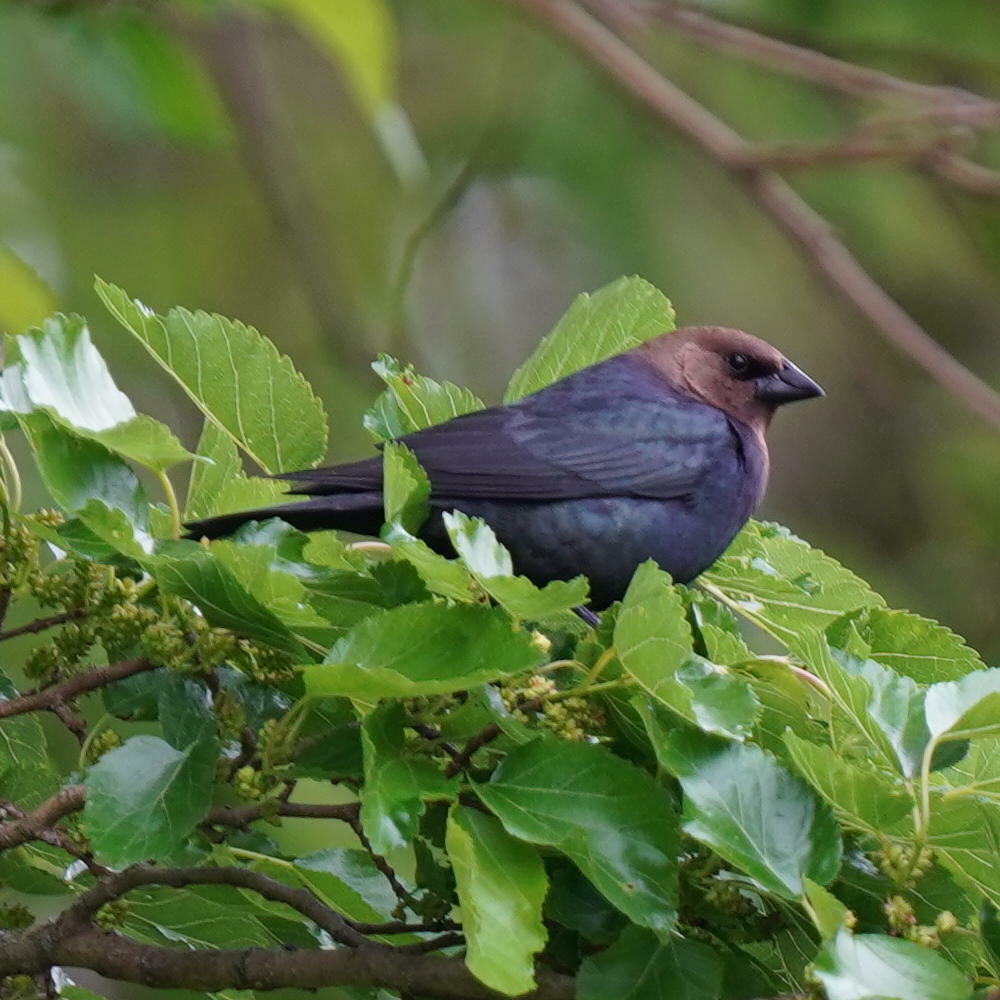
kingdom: Animalia
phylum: Chordata
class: Aves
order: Passeriformes
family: Icteridae
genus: Molothrus
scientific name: Molothrus ater
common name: Brown-headed cowbird
